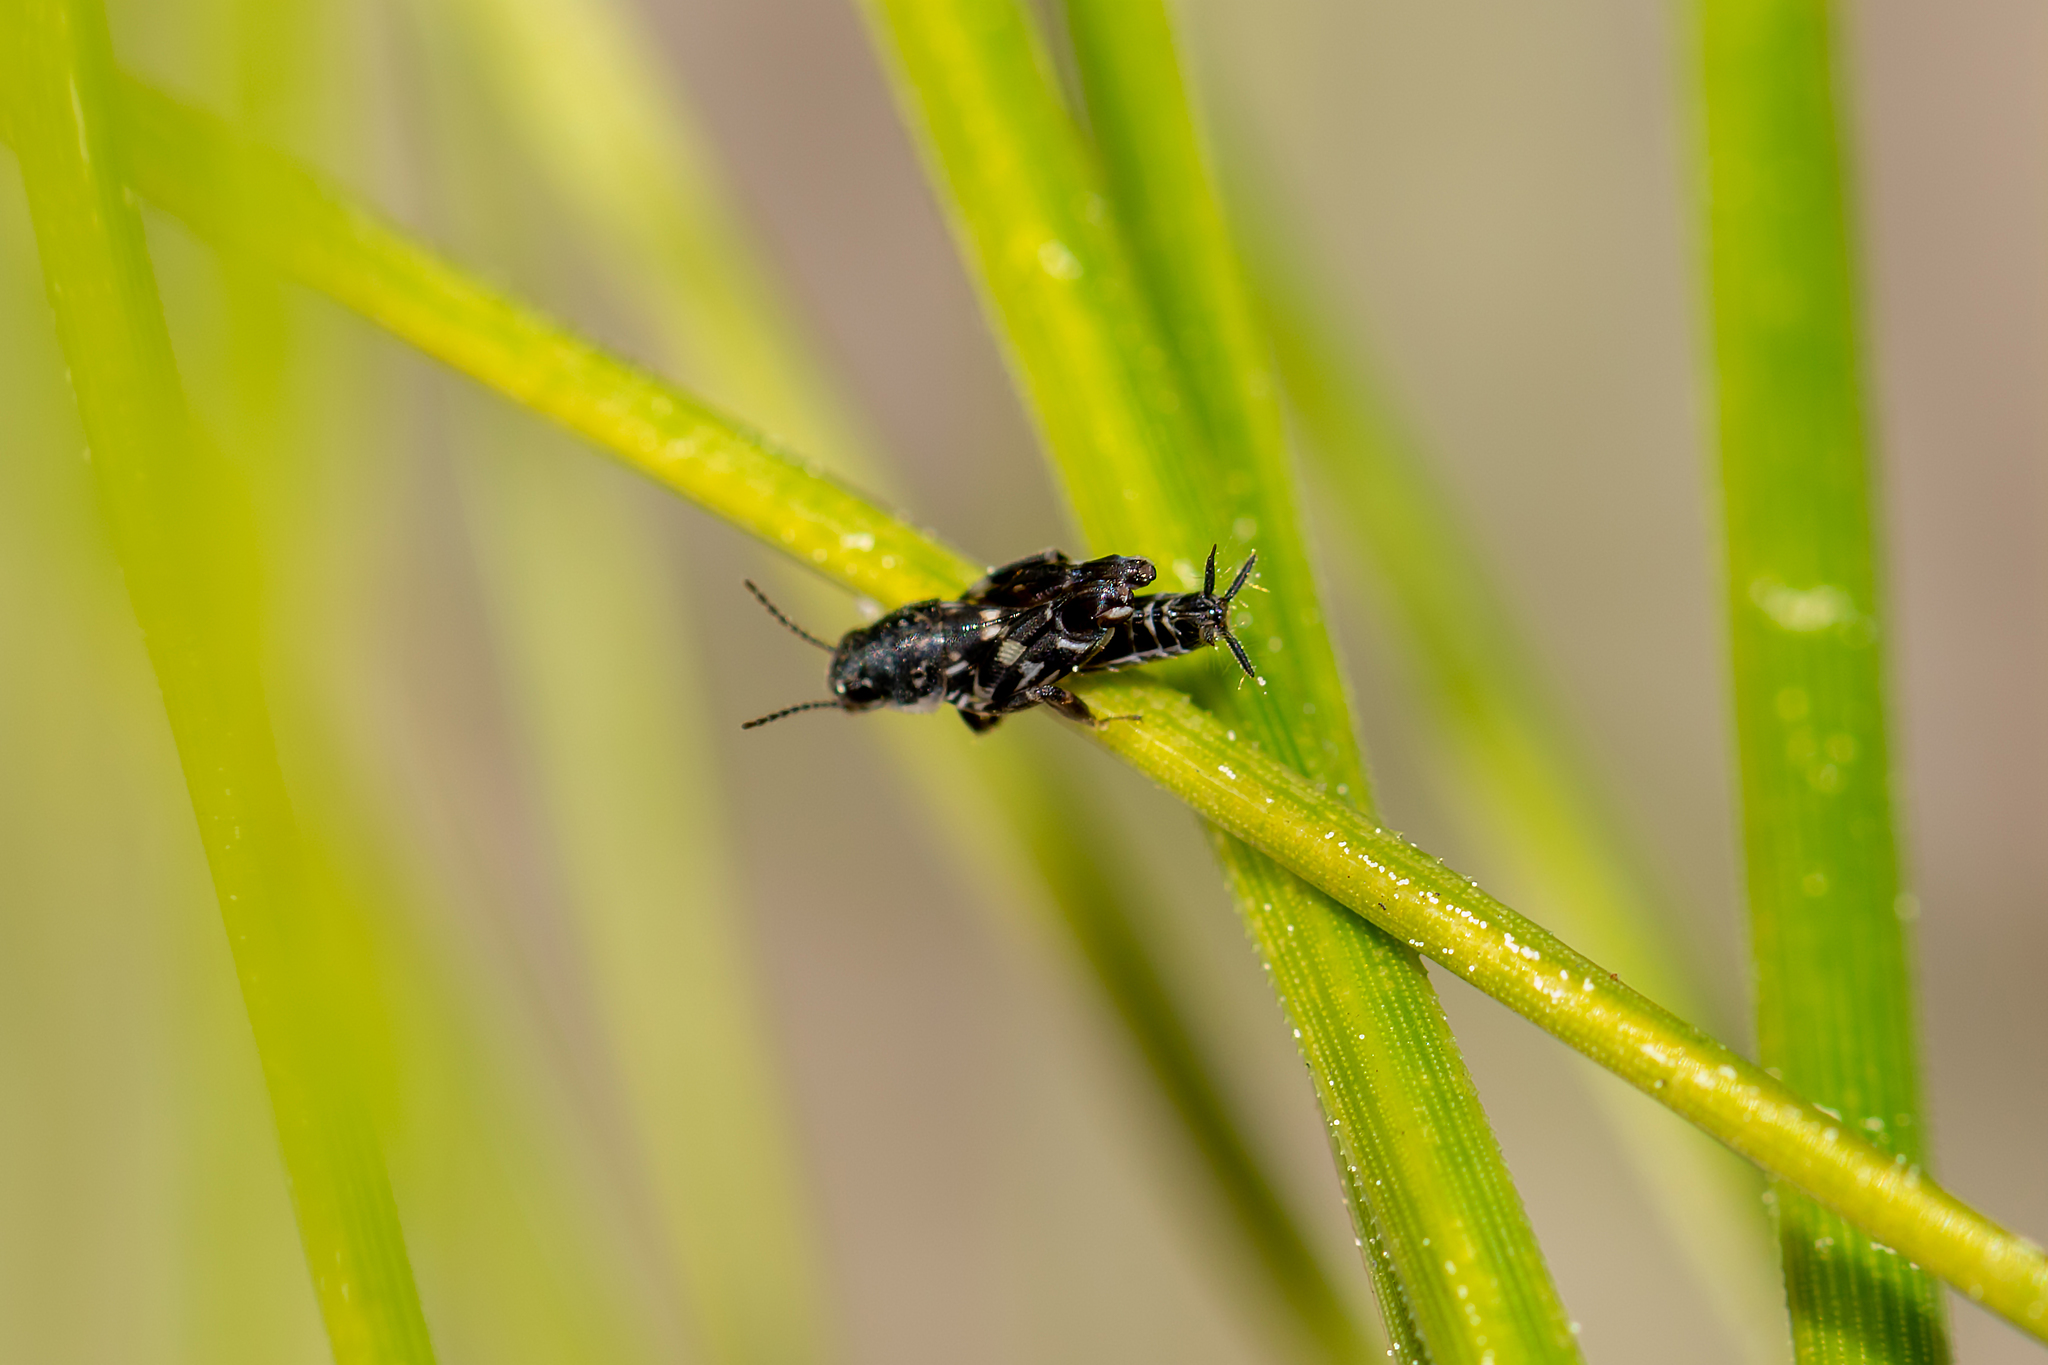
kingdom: Animalia
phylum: Arthropoda
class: Insecta
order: Orthoptera
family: Tridactylidae
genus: Ellipes
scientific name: Ellipes minuta
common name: Minute pygmy locust
